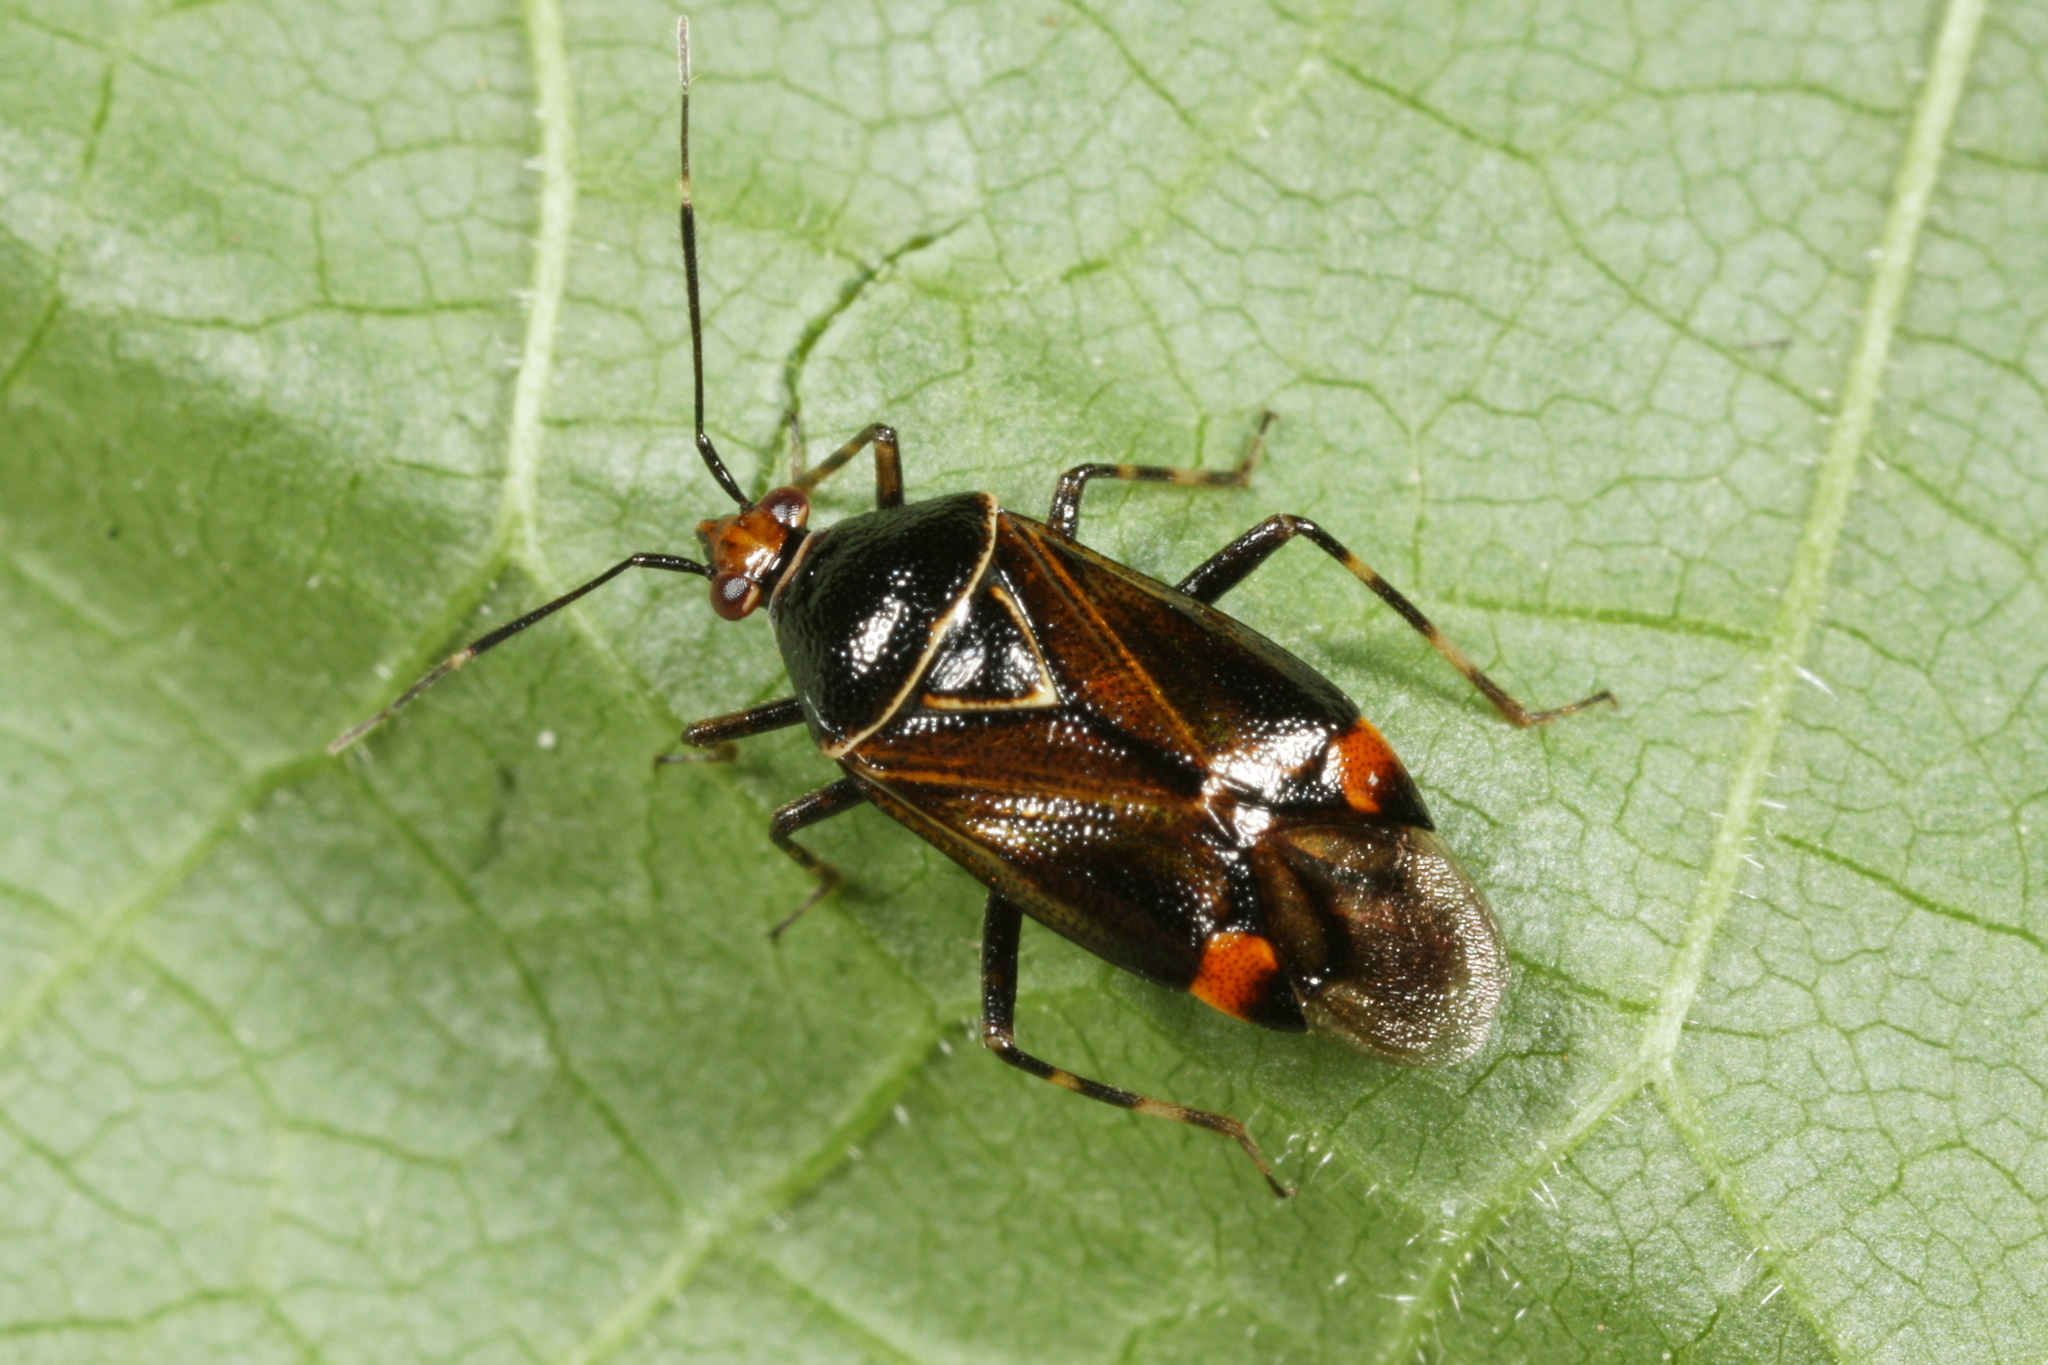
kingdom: Animalia
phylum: Arthropoda
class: Insecta
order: Hemiptera
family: Miridae
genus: Deraeocoris
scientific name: Deraeocoris flavilinea
